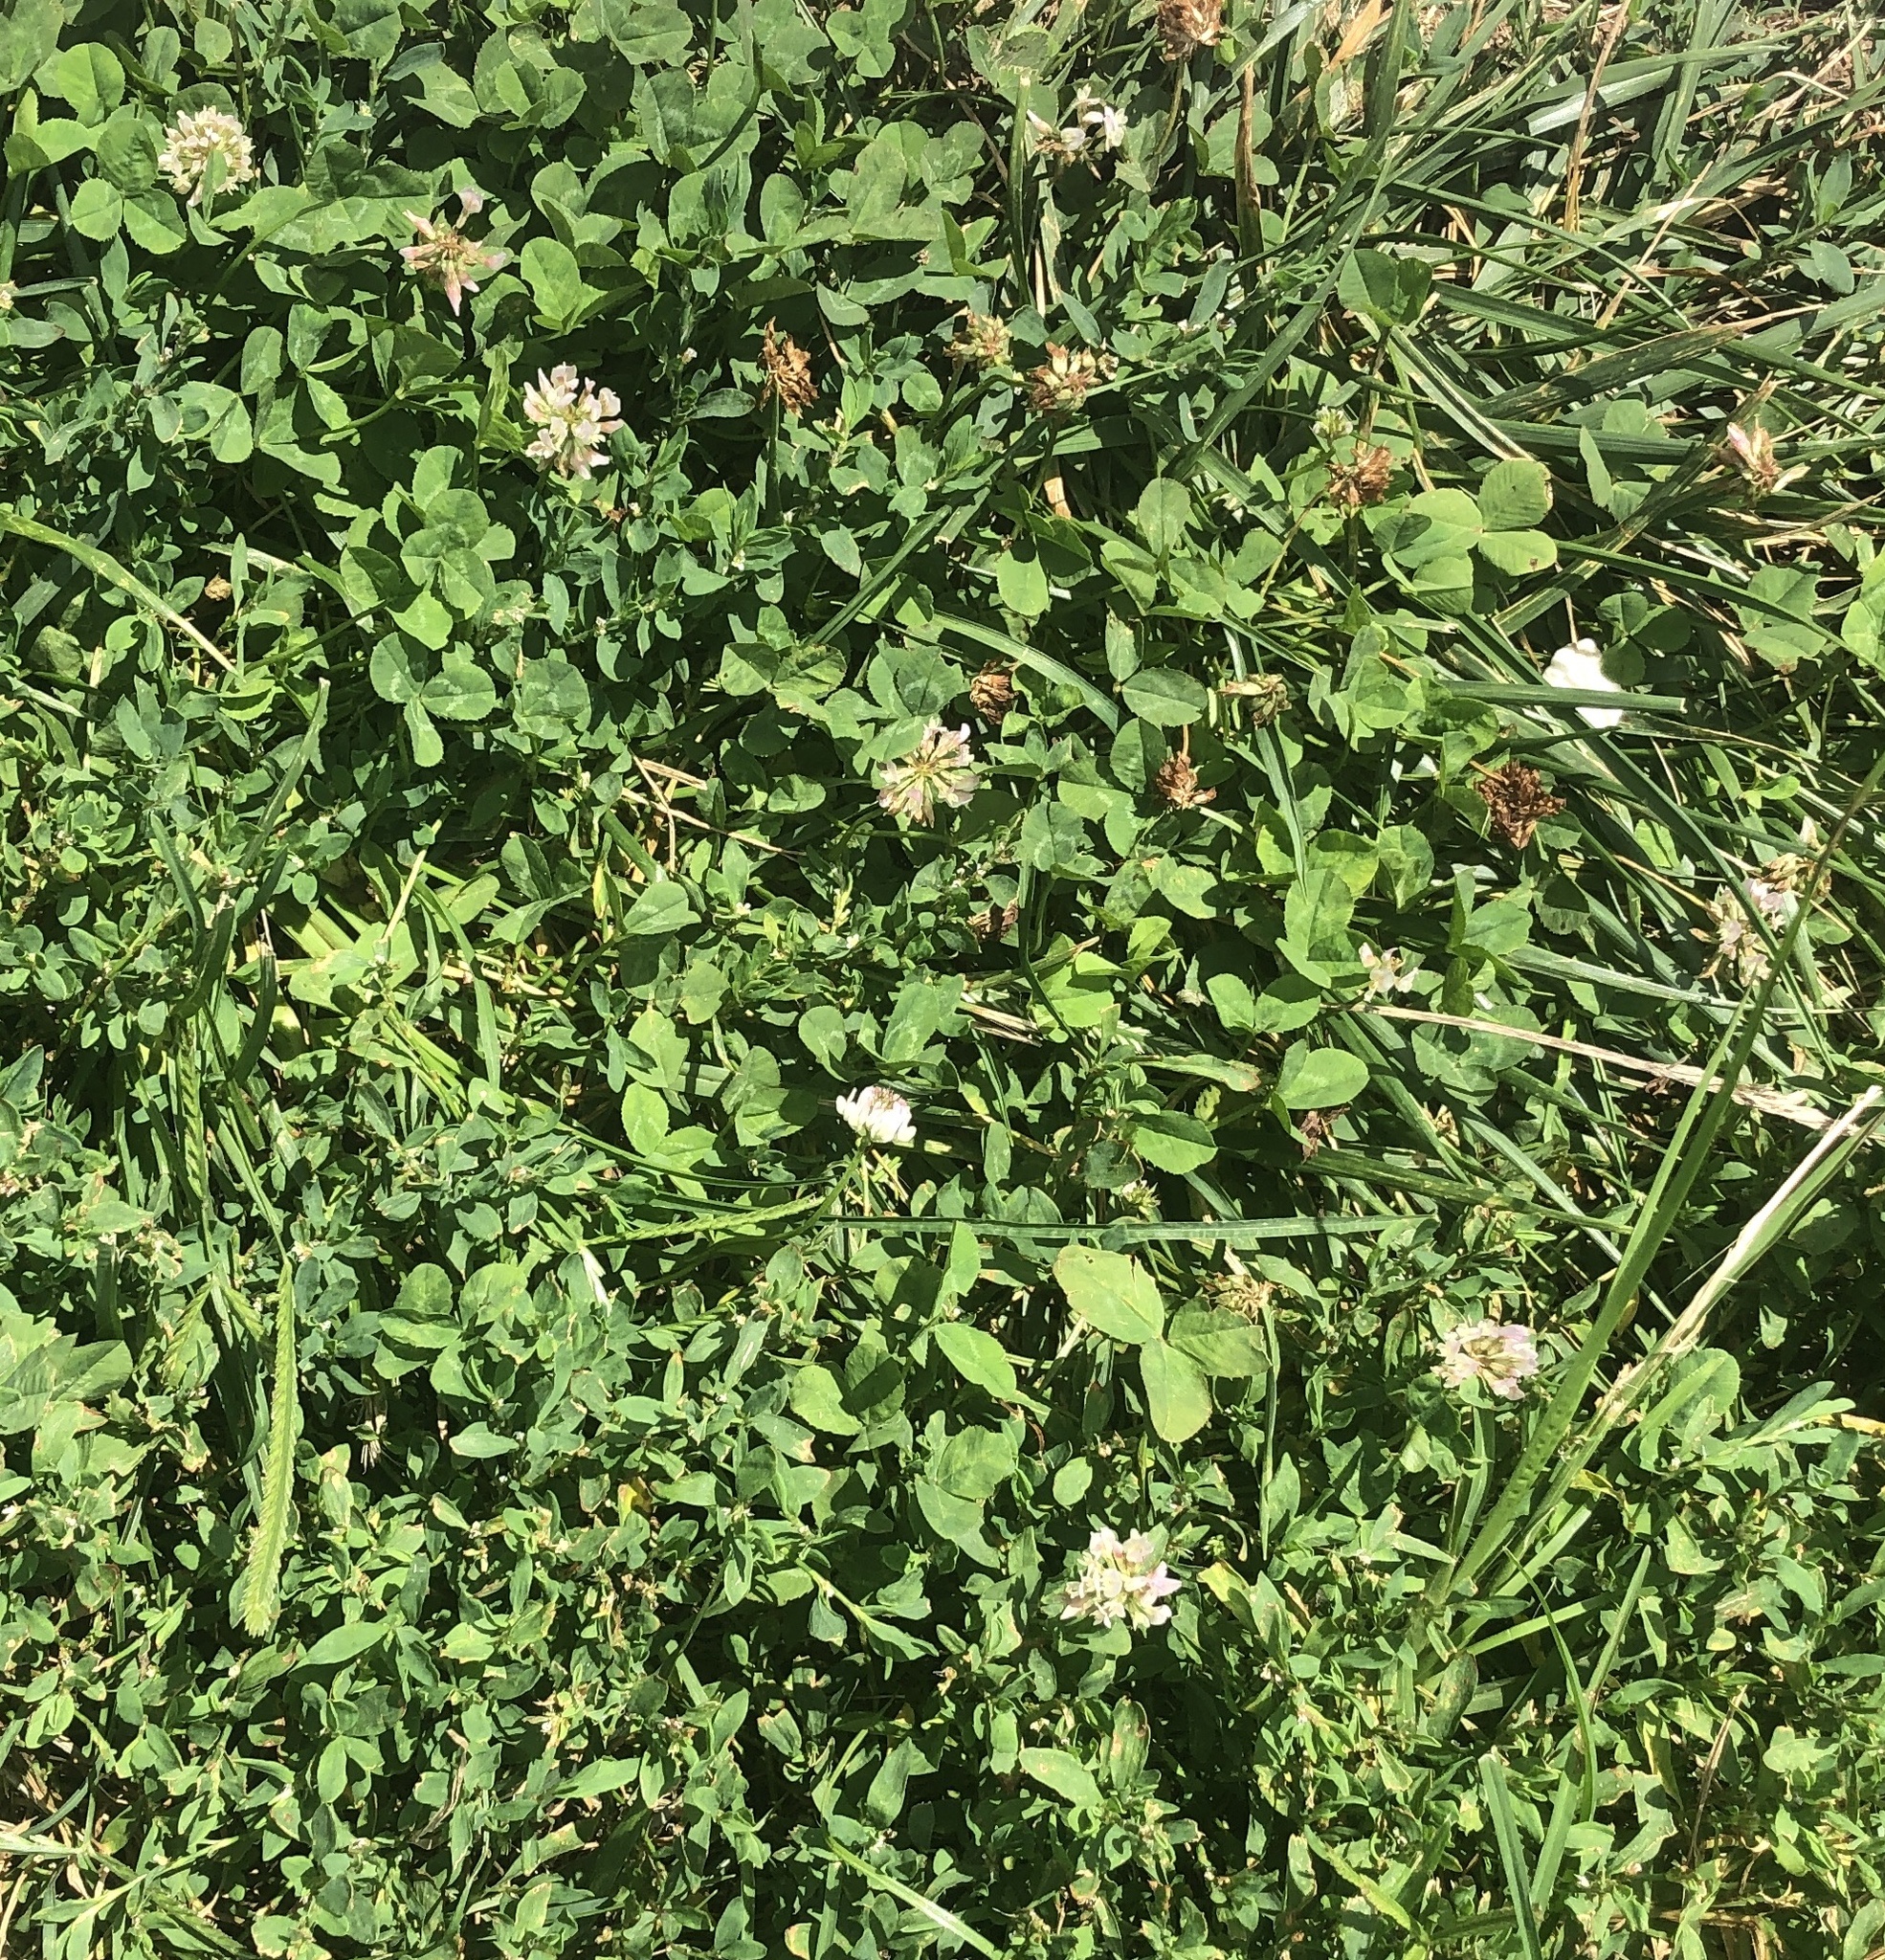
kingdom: Plantae
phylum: Tracheophyta
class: Magnoliopsida
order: Fabales
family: Fabaceae
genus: Trifolium
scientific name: Trifolium repens
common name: White clover
